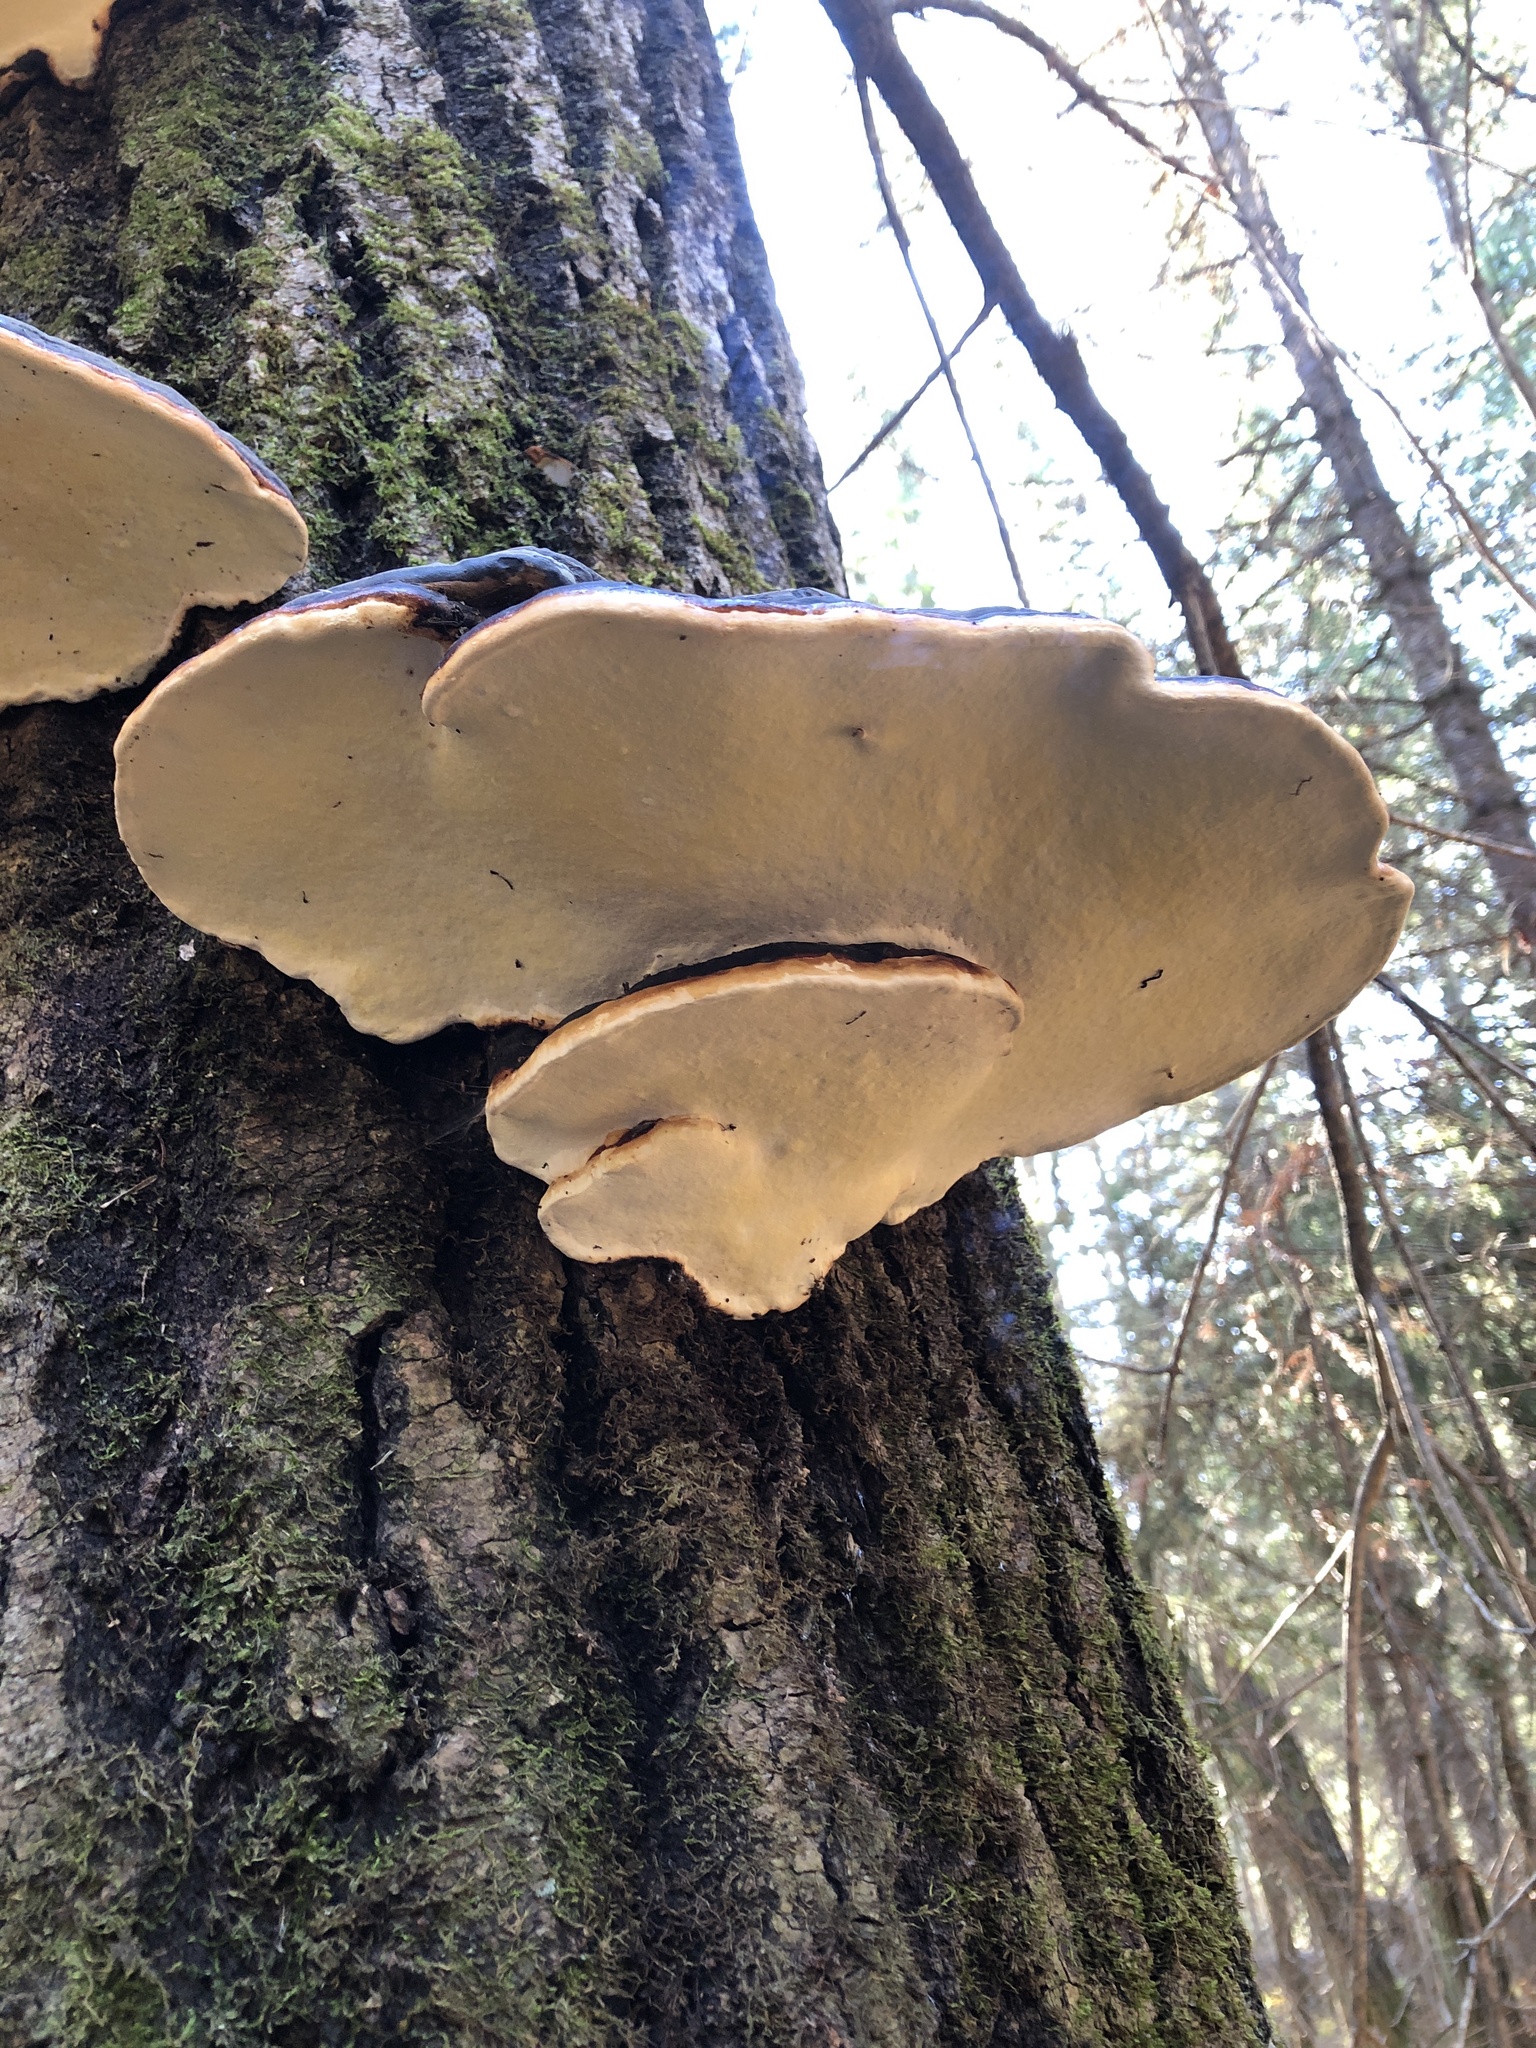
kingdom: Fungi
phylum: Basidiomycota
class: Agaricomycetes
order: Polyporales
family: Fomitopsidaceae
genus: Fomitopsis
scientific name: Fomitopsis mounceae
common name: Northern red belt
